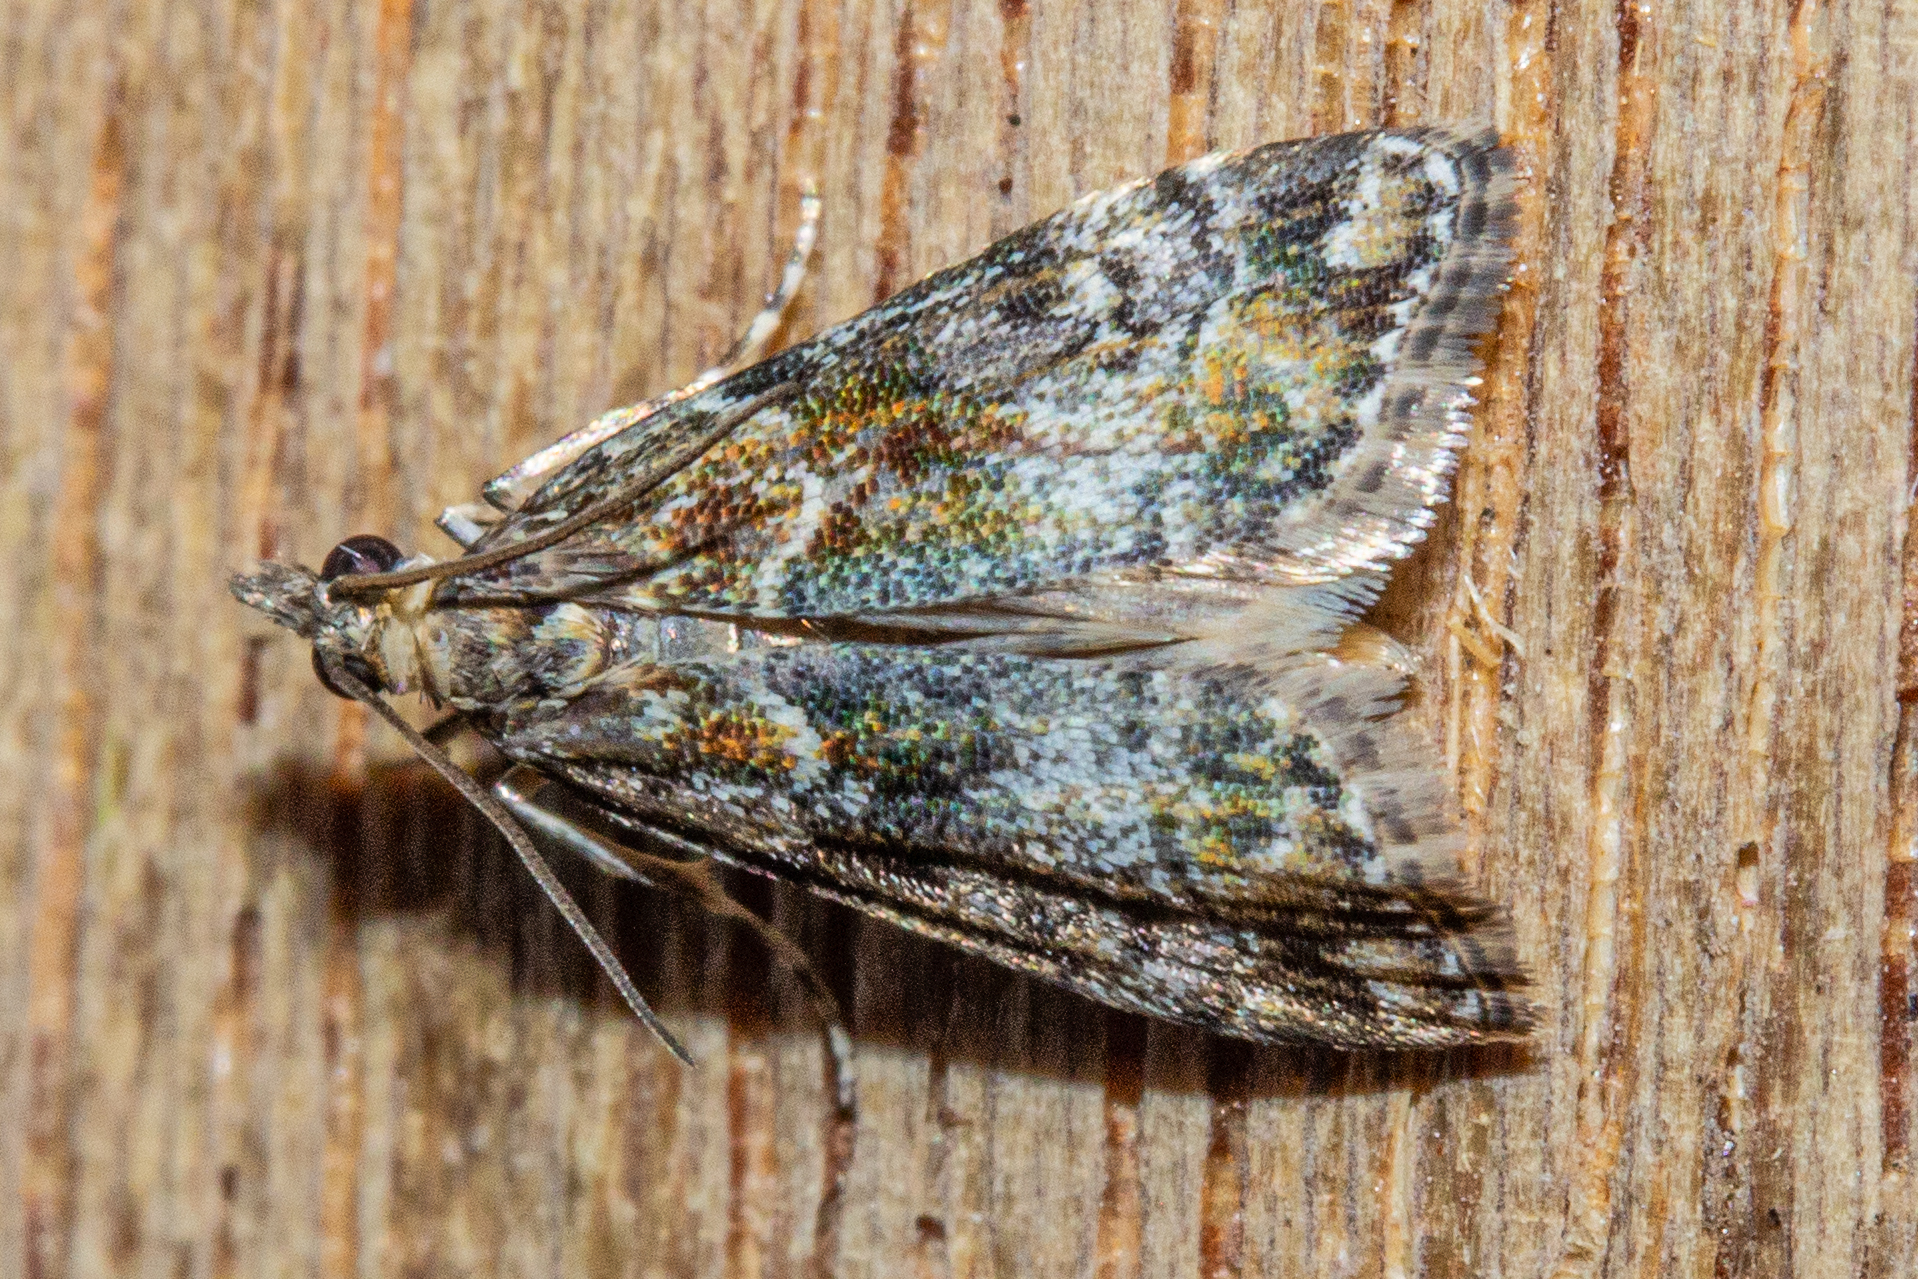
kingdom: Animalia
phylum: Arthropoda
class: Insecta
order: Lepidoptera
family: Crambidae
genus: Eudonia
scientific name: Eudonia minualis
